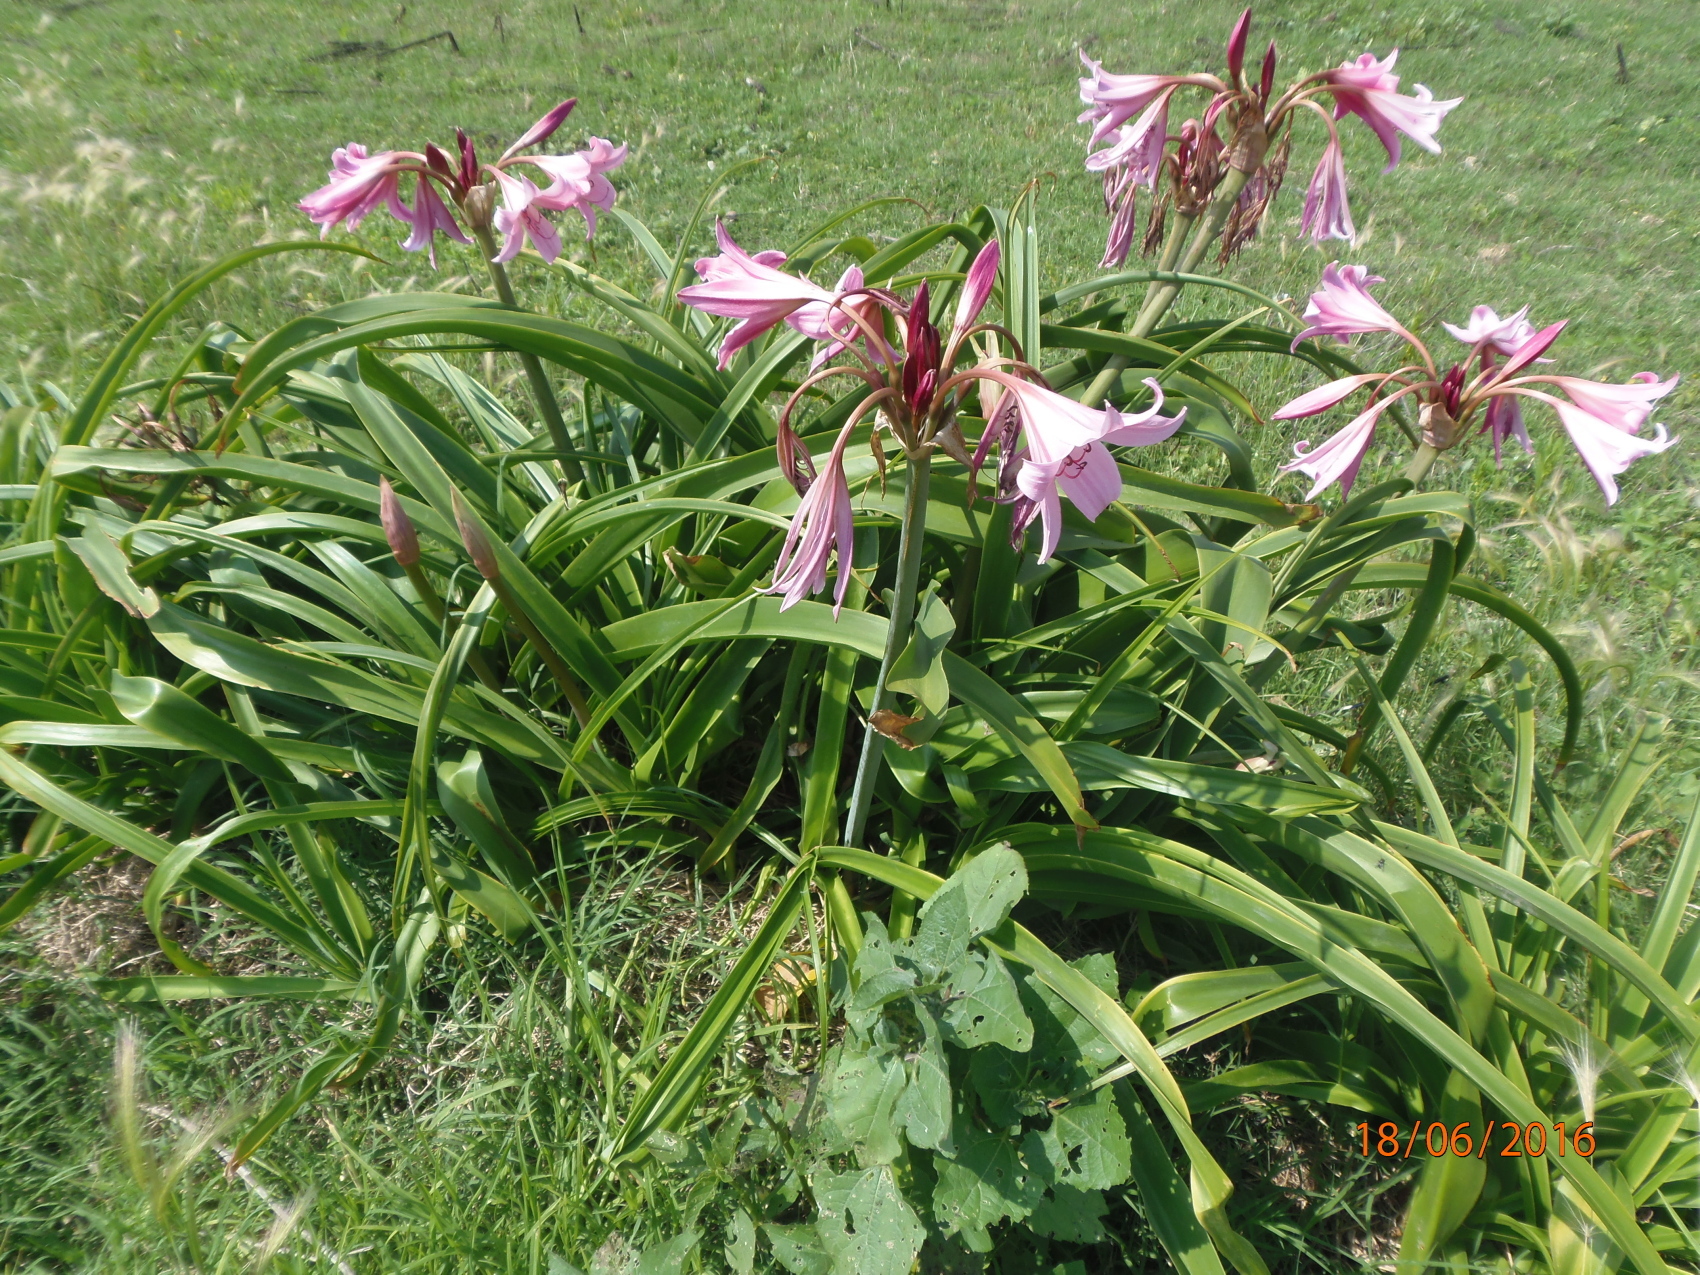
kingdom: Plantae
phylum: Tracheophyta
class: Liliopsida
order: Asparagales
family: Amaryllidaceae
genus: Crinum
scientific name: Crinum powellii
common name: Powell's cape-lily
